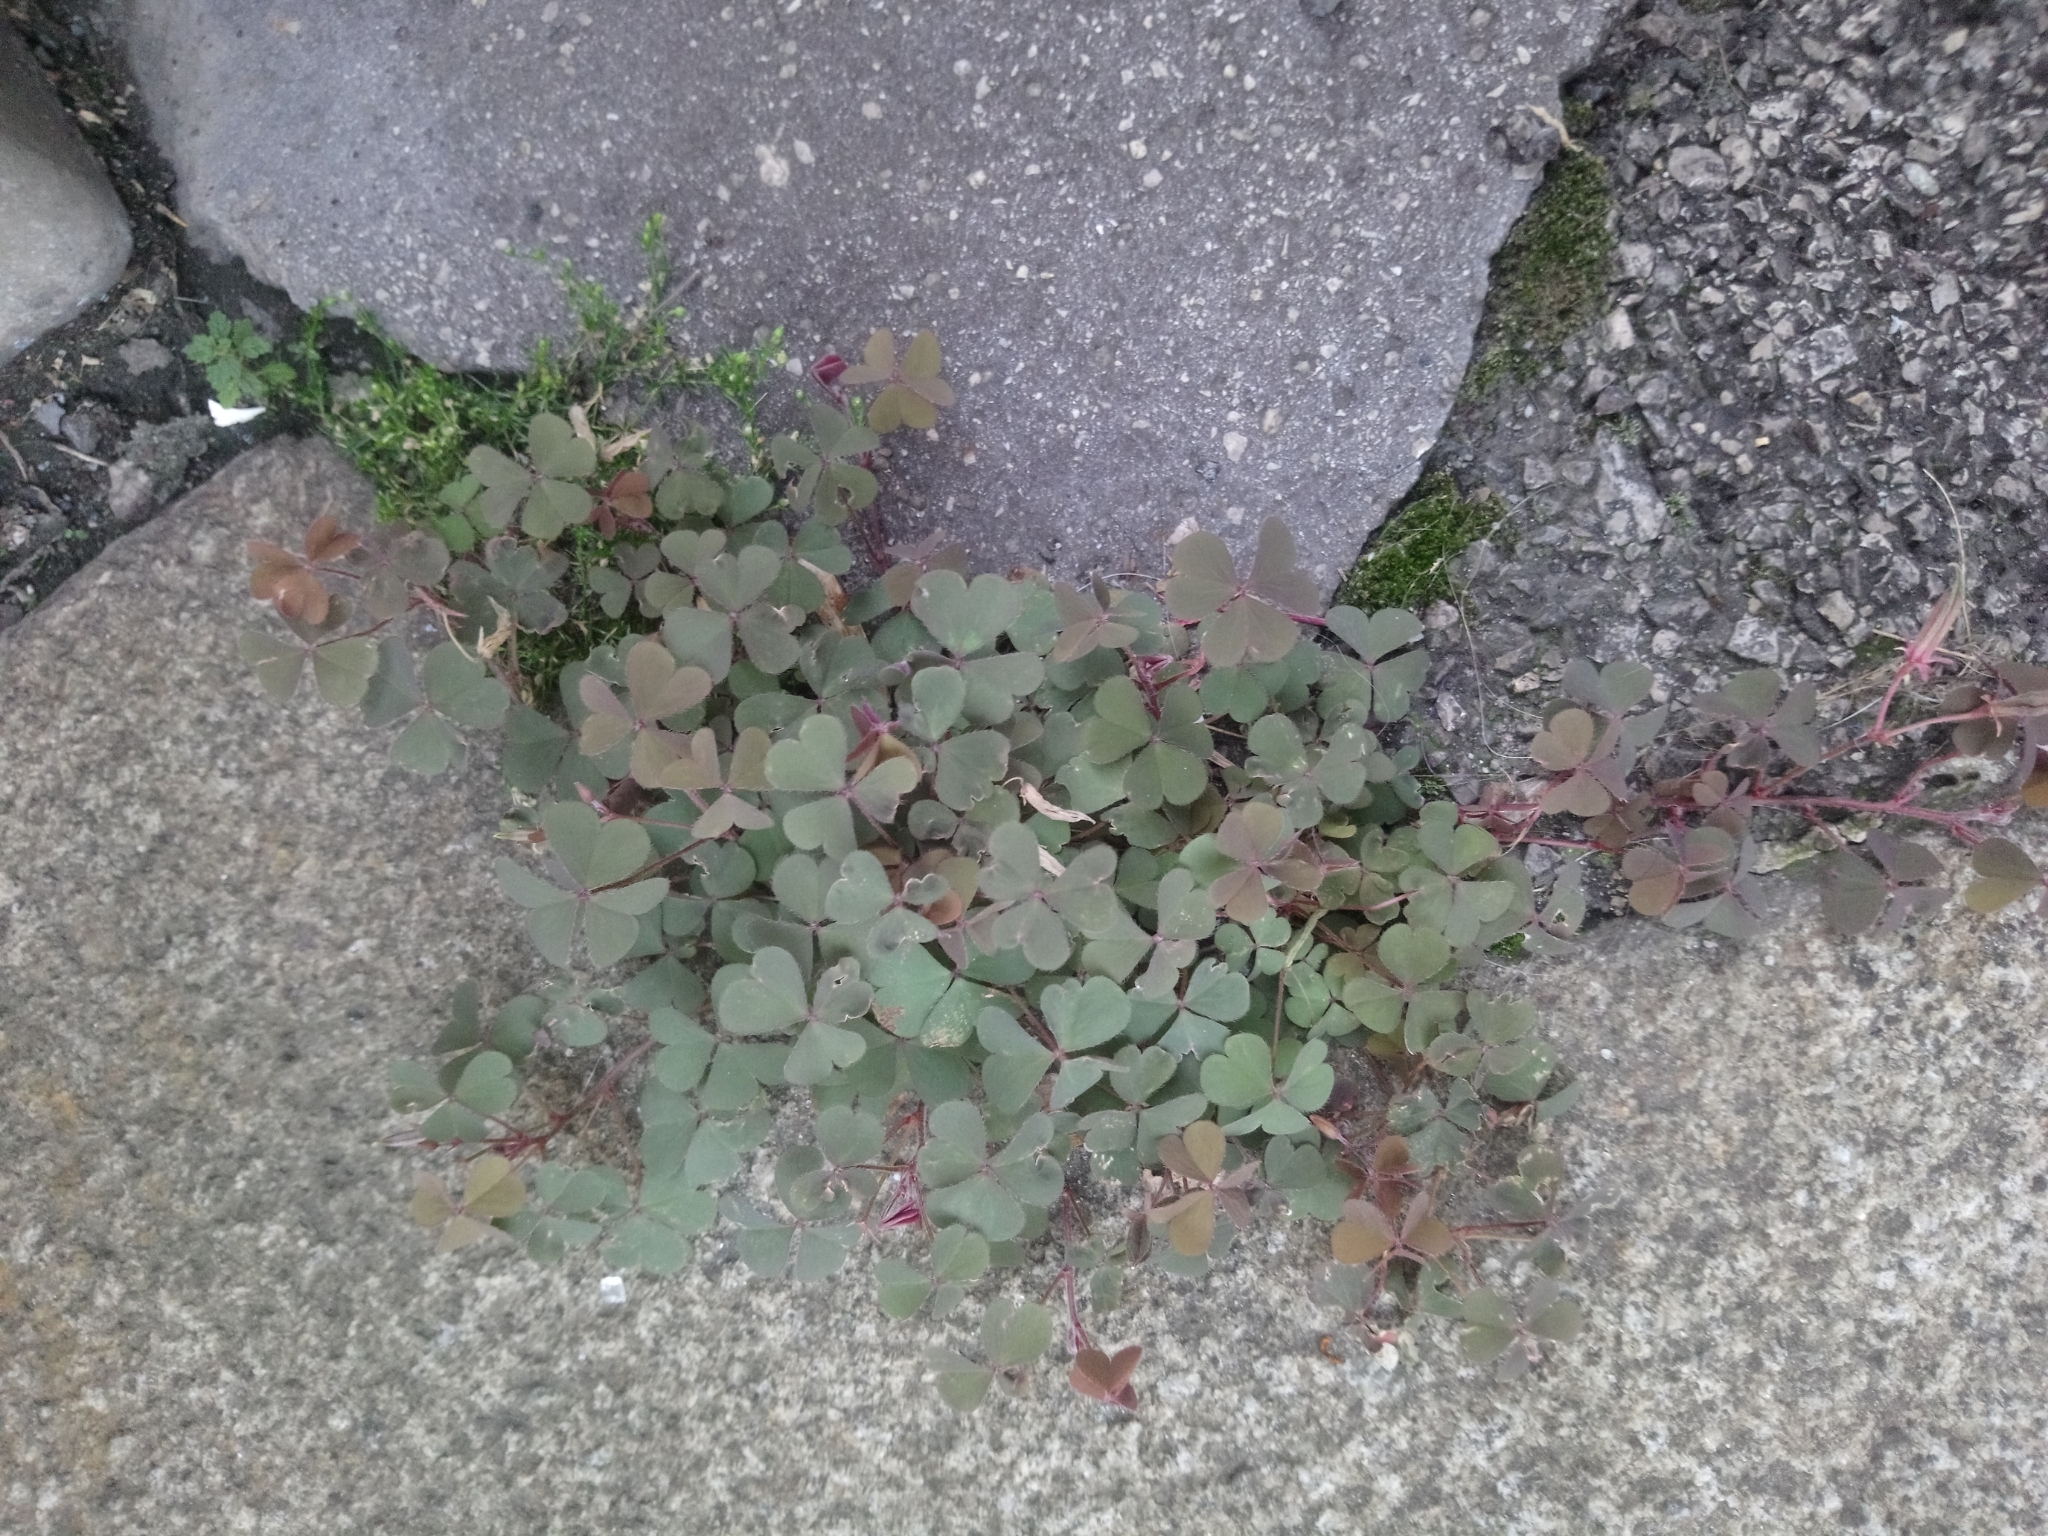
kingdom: Plantae
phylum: Tracheophyta
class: Magnoliopsida
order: Oxalidales
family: Oxalidaceae
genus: Oxalis
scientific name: Oxalis corniculata
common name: Procumbent yellow-sorrel
